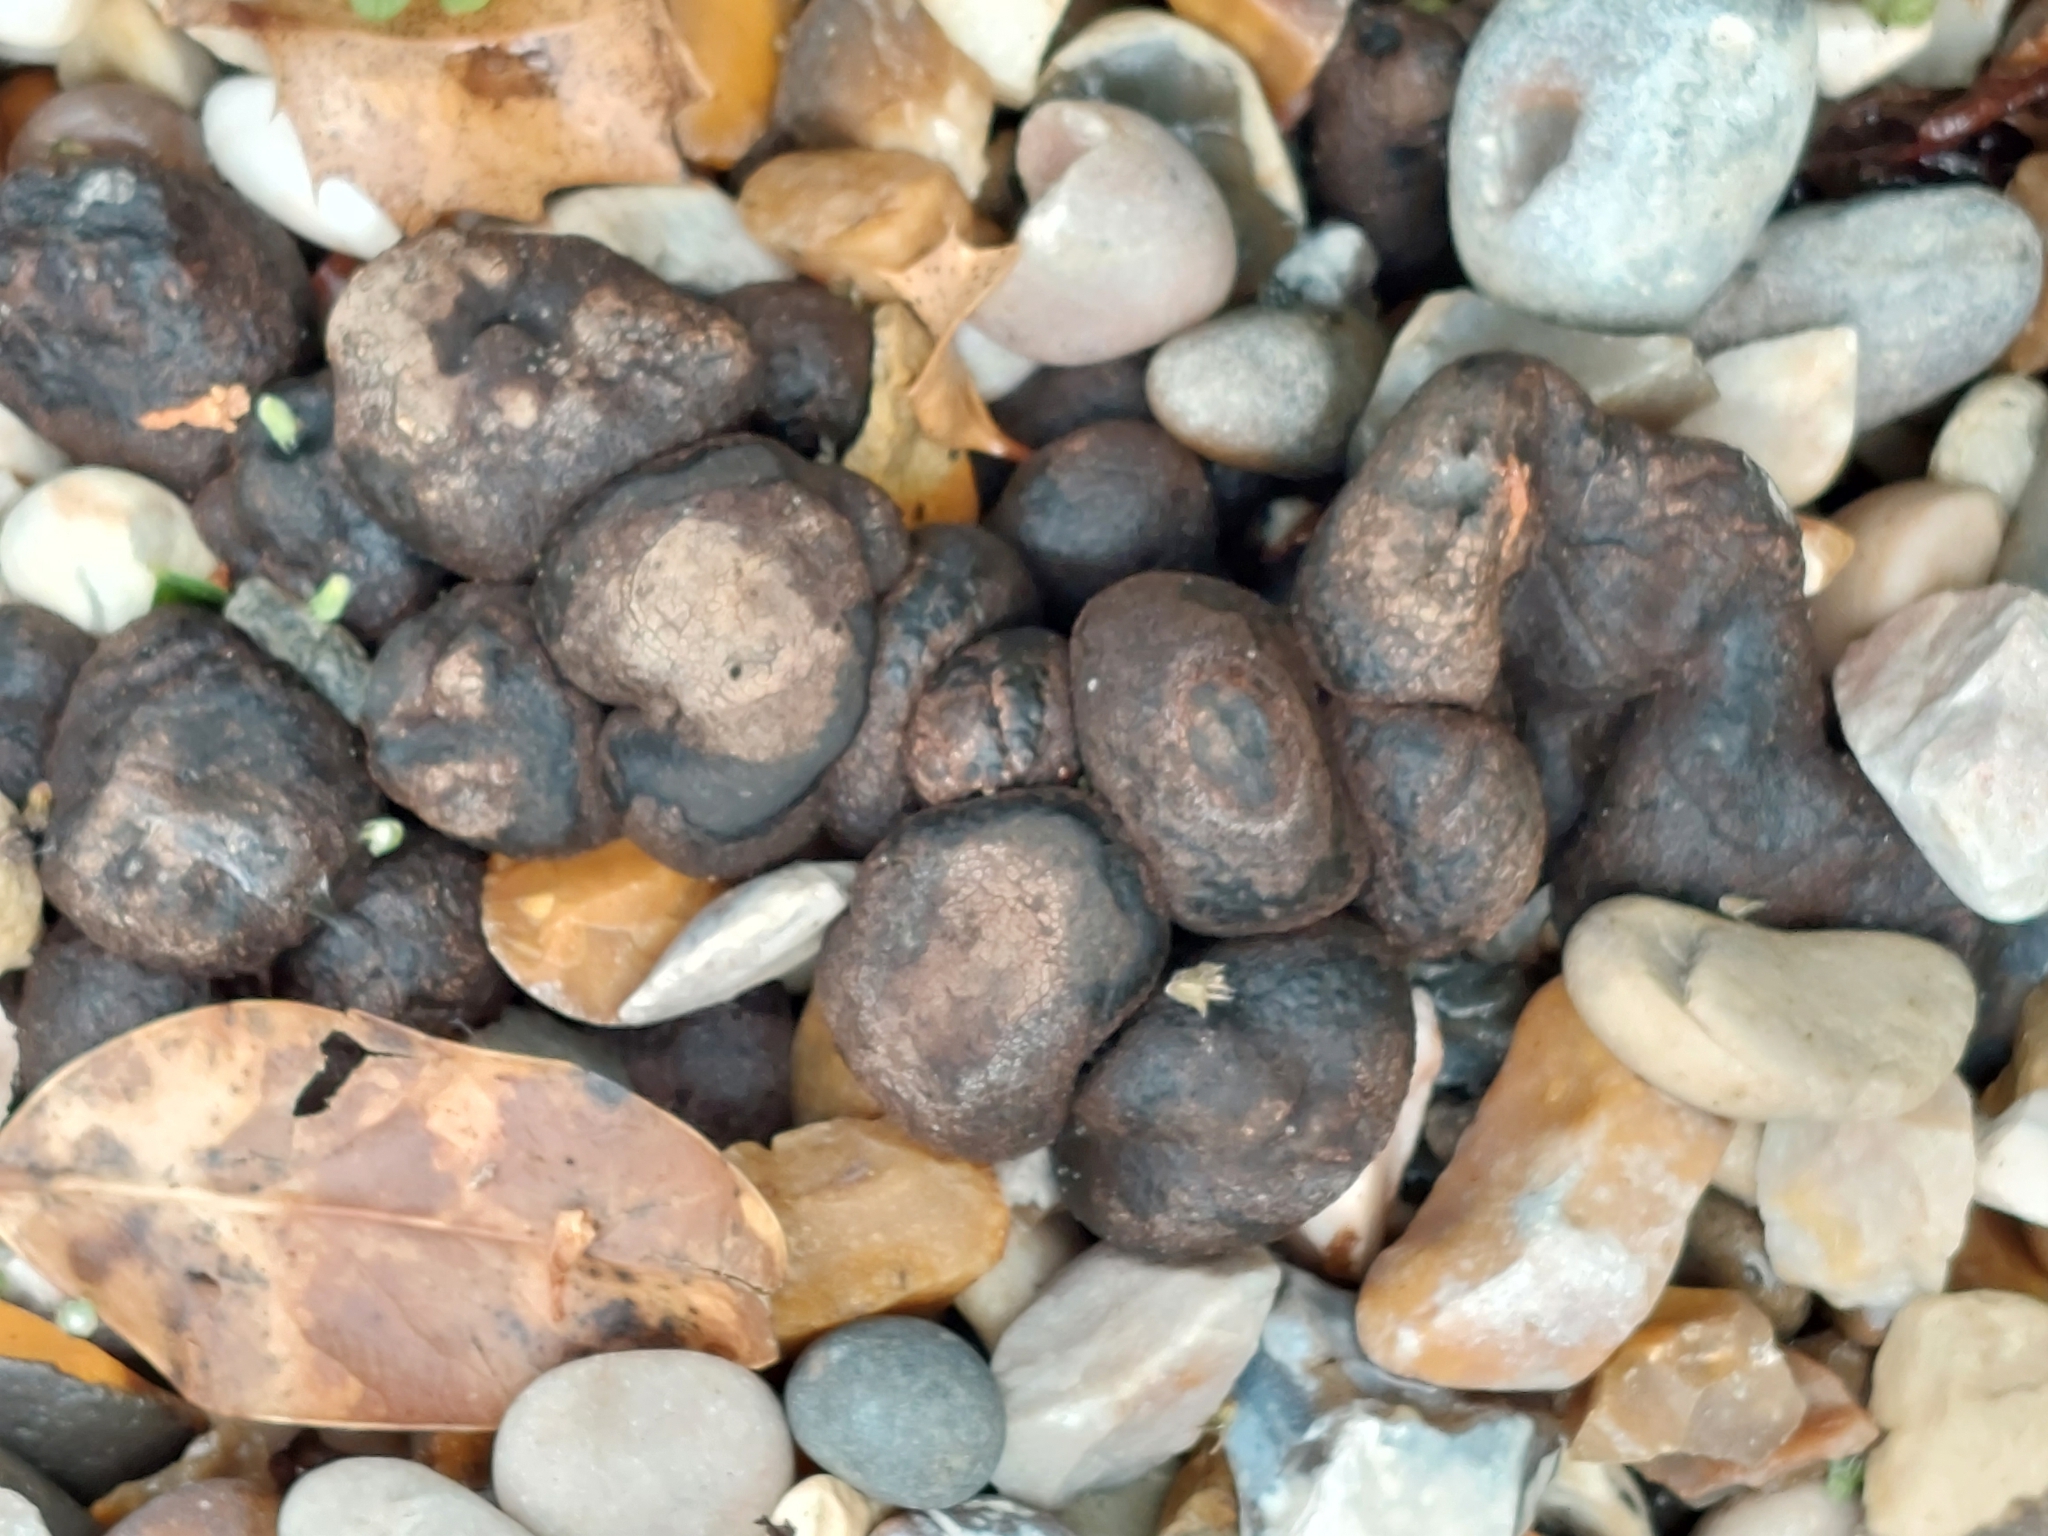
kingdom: Fungi
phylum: Ascomycota
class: Sordariomycetes
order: Xylariales
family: Hypoxylaceae
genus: Daldinia
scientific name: Daldinia concentrica
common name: Cramp balls
